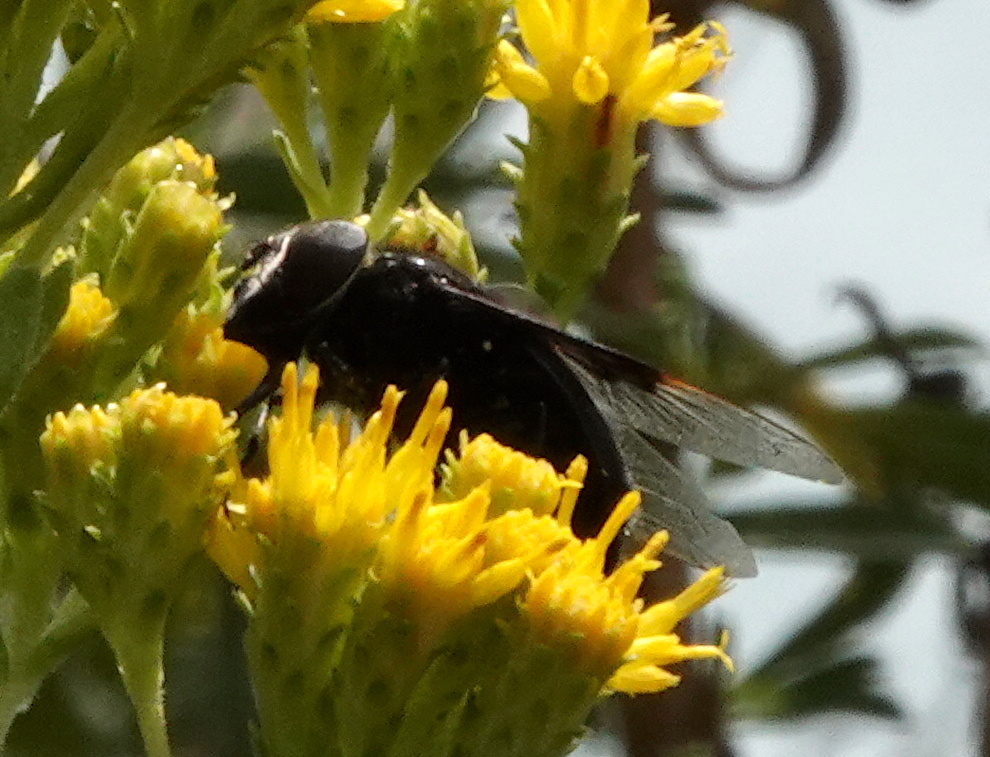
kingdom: Animalia
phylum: Arthropoda
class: Insecta
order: Diptera
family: Syrphidae
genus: Copestylum
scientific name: Copestylum mexicanum
